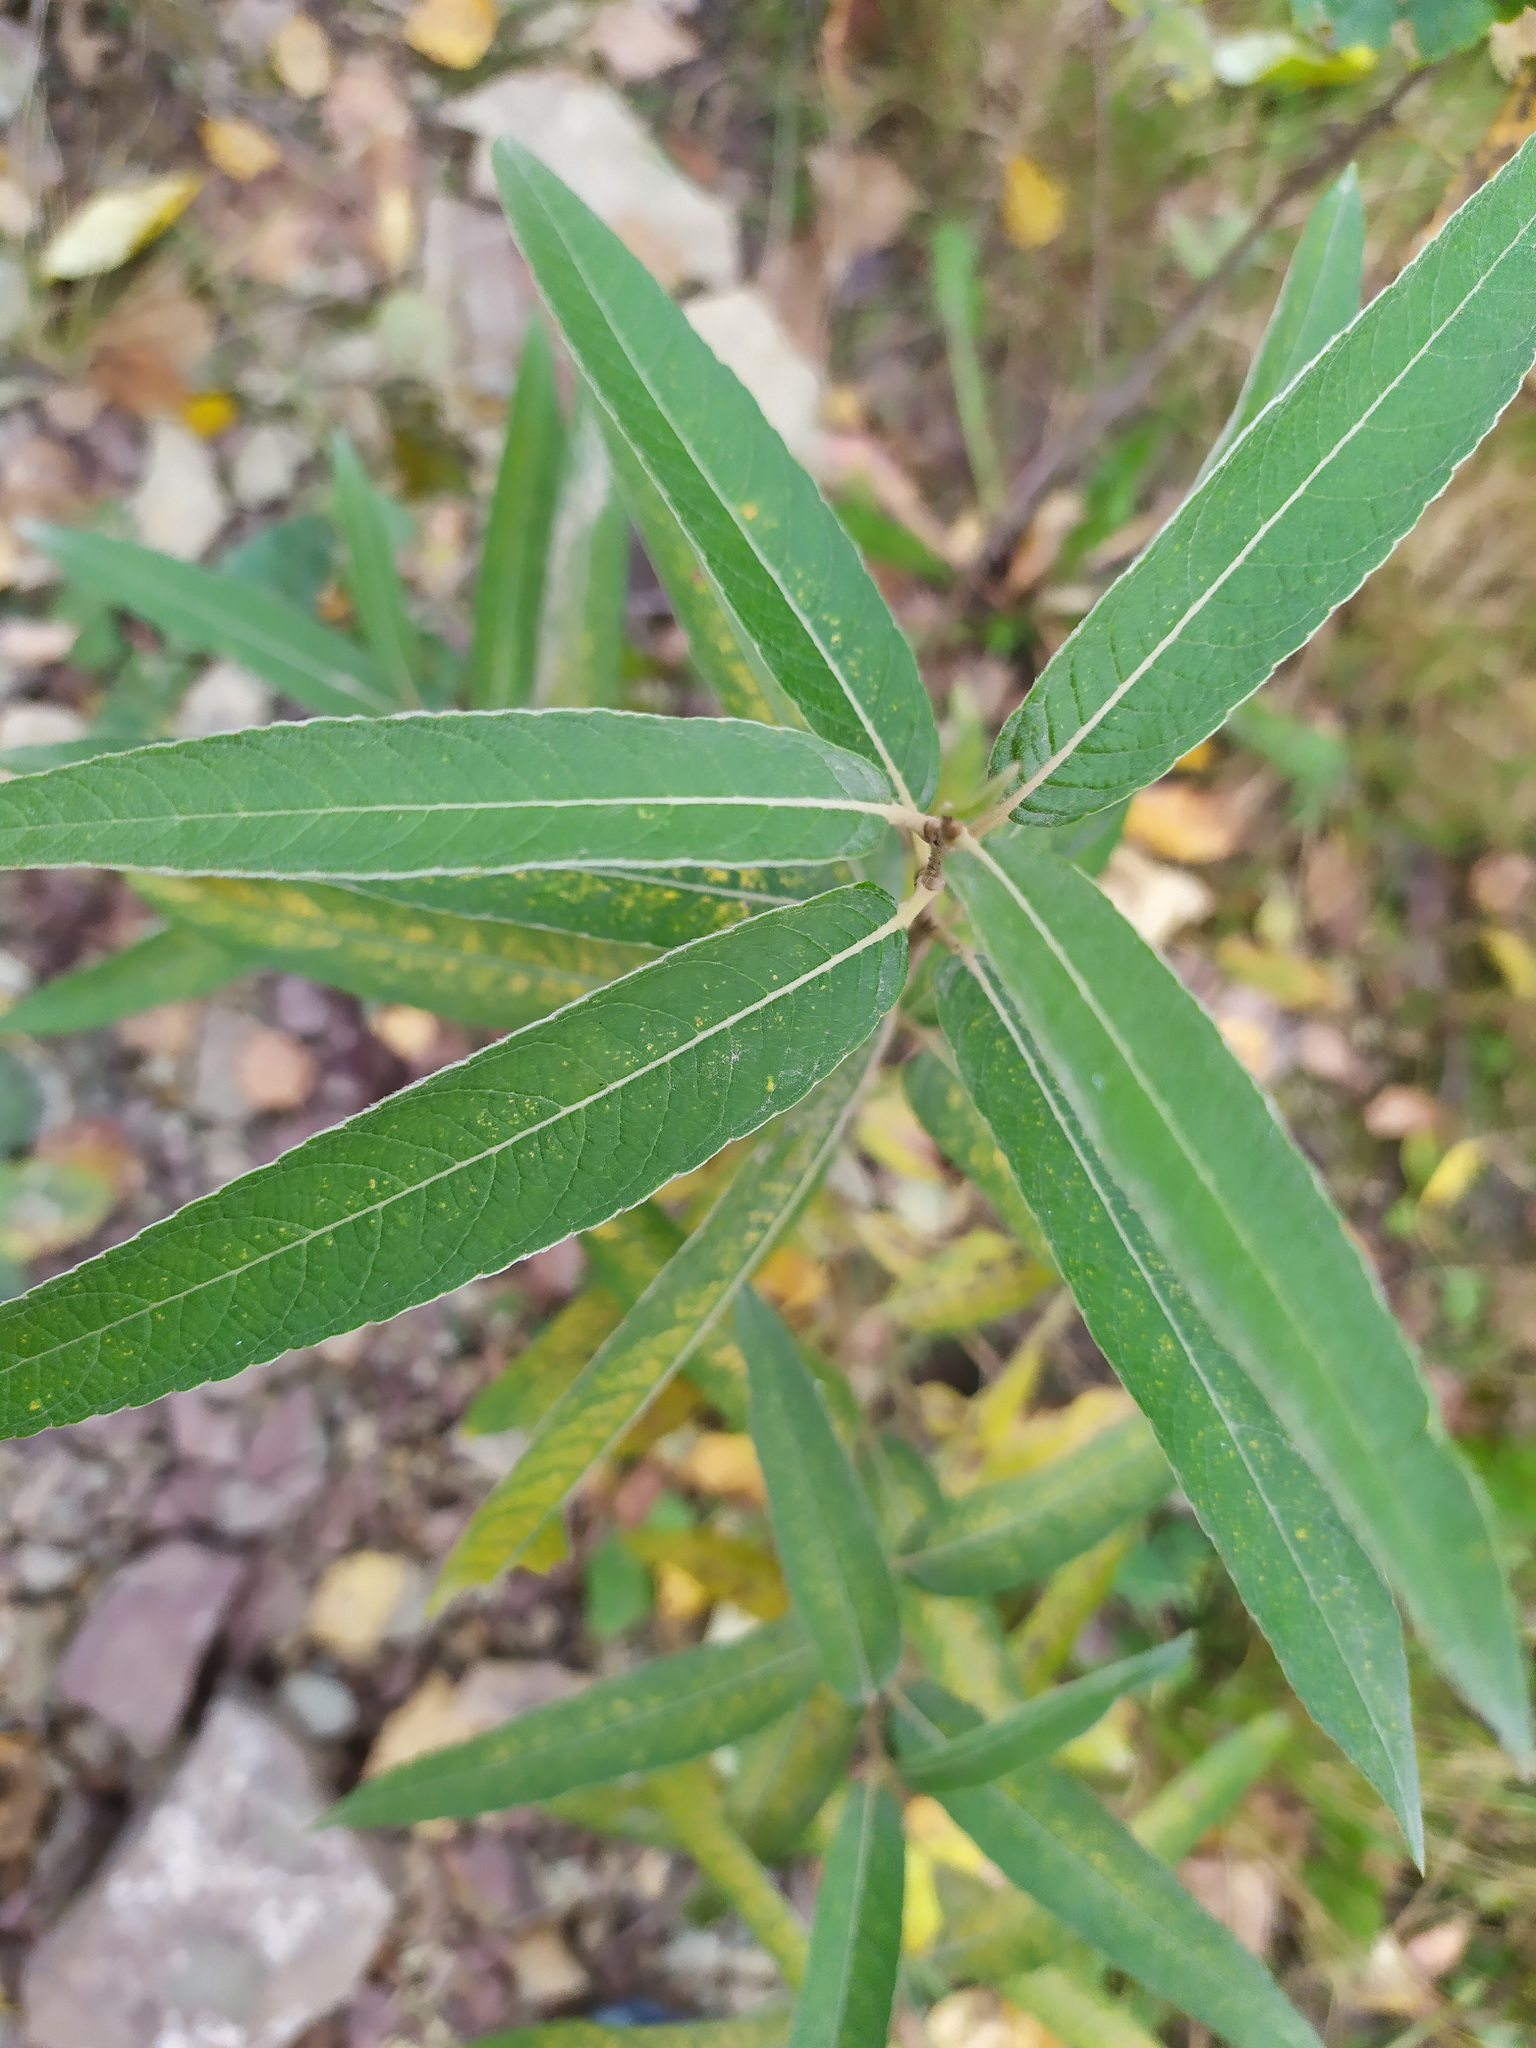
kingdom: Plantae
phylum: Tracheophyta
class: Magnoliopsida
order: Caryophyllales
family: Polygonaceae
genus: Persicaria
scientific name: Persicaria amphibia
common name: Amphibious bistort
